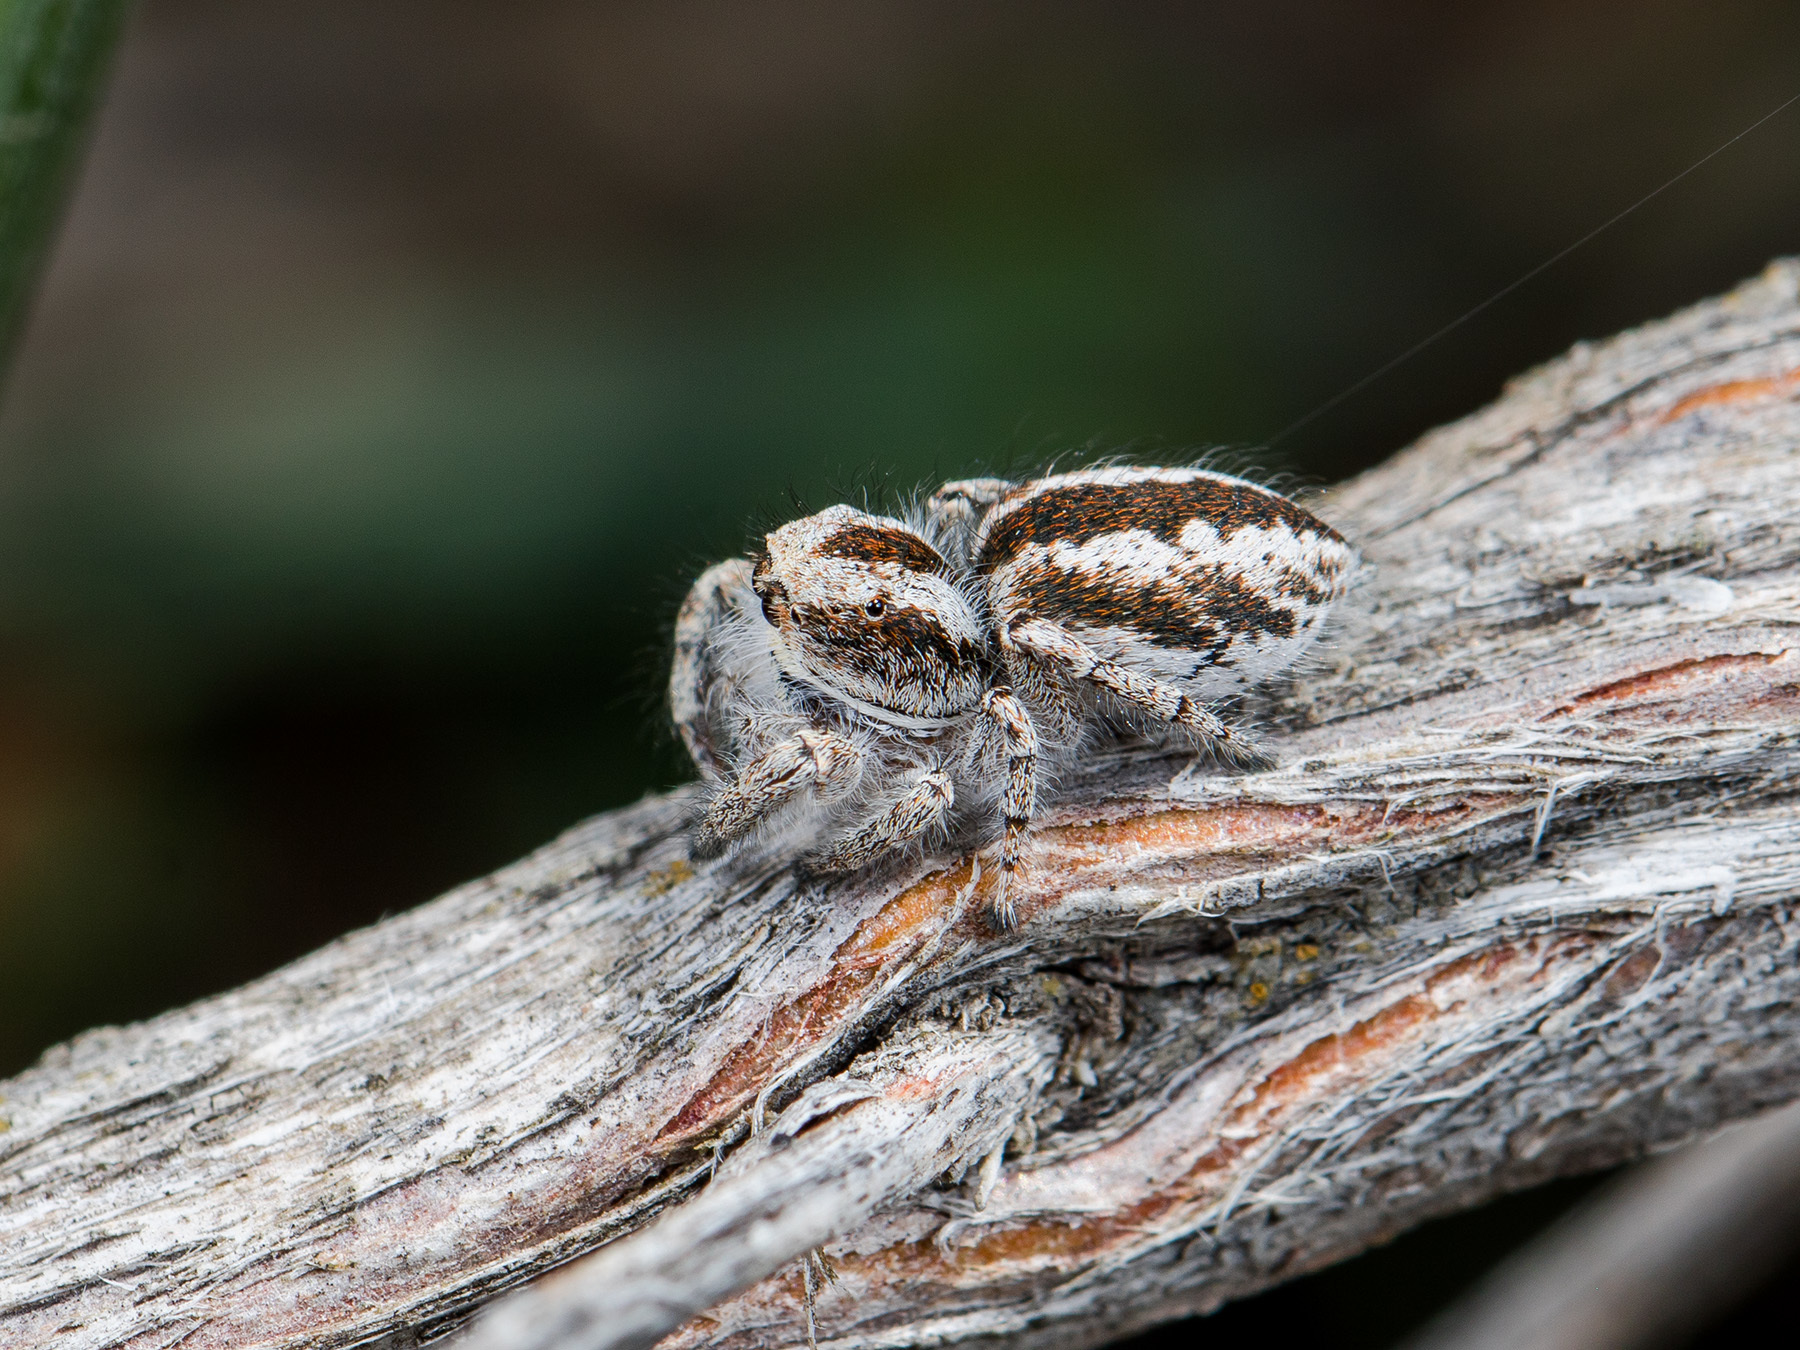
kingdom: Animalia
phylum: Arthropoda
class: Arachnida
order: Araneae
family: Salticidae
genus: Pseudomogrus
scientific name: Pseudomogrus vittatus
